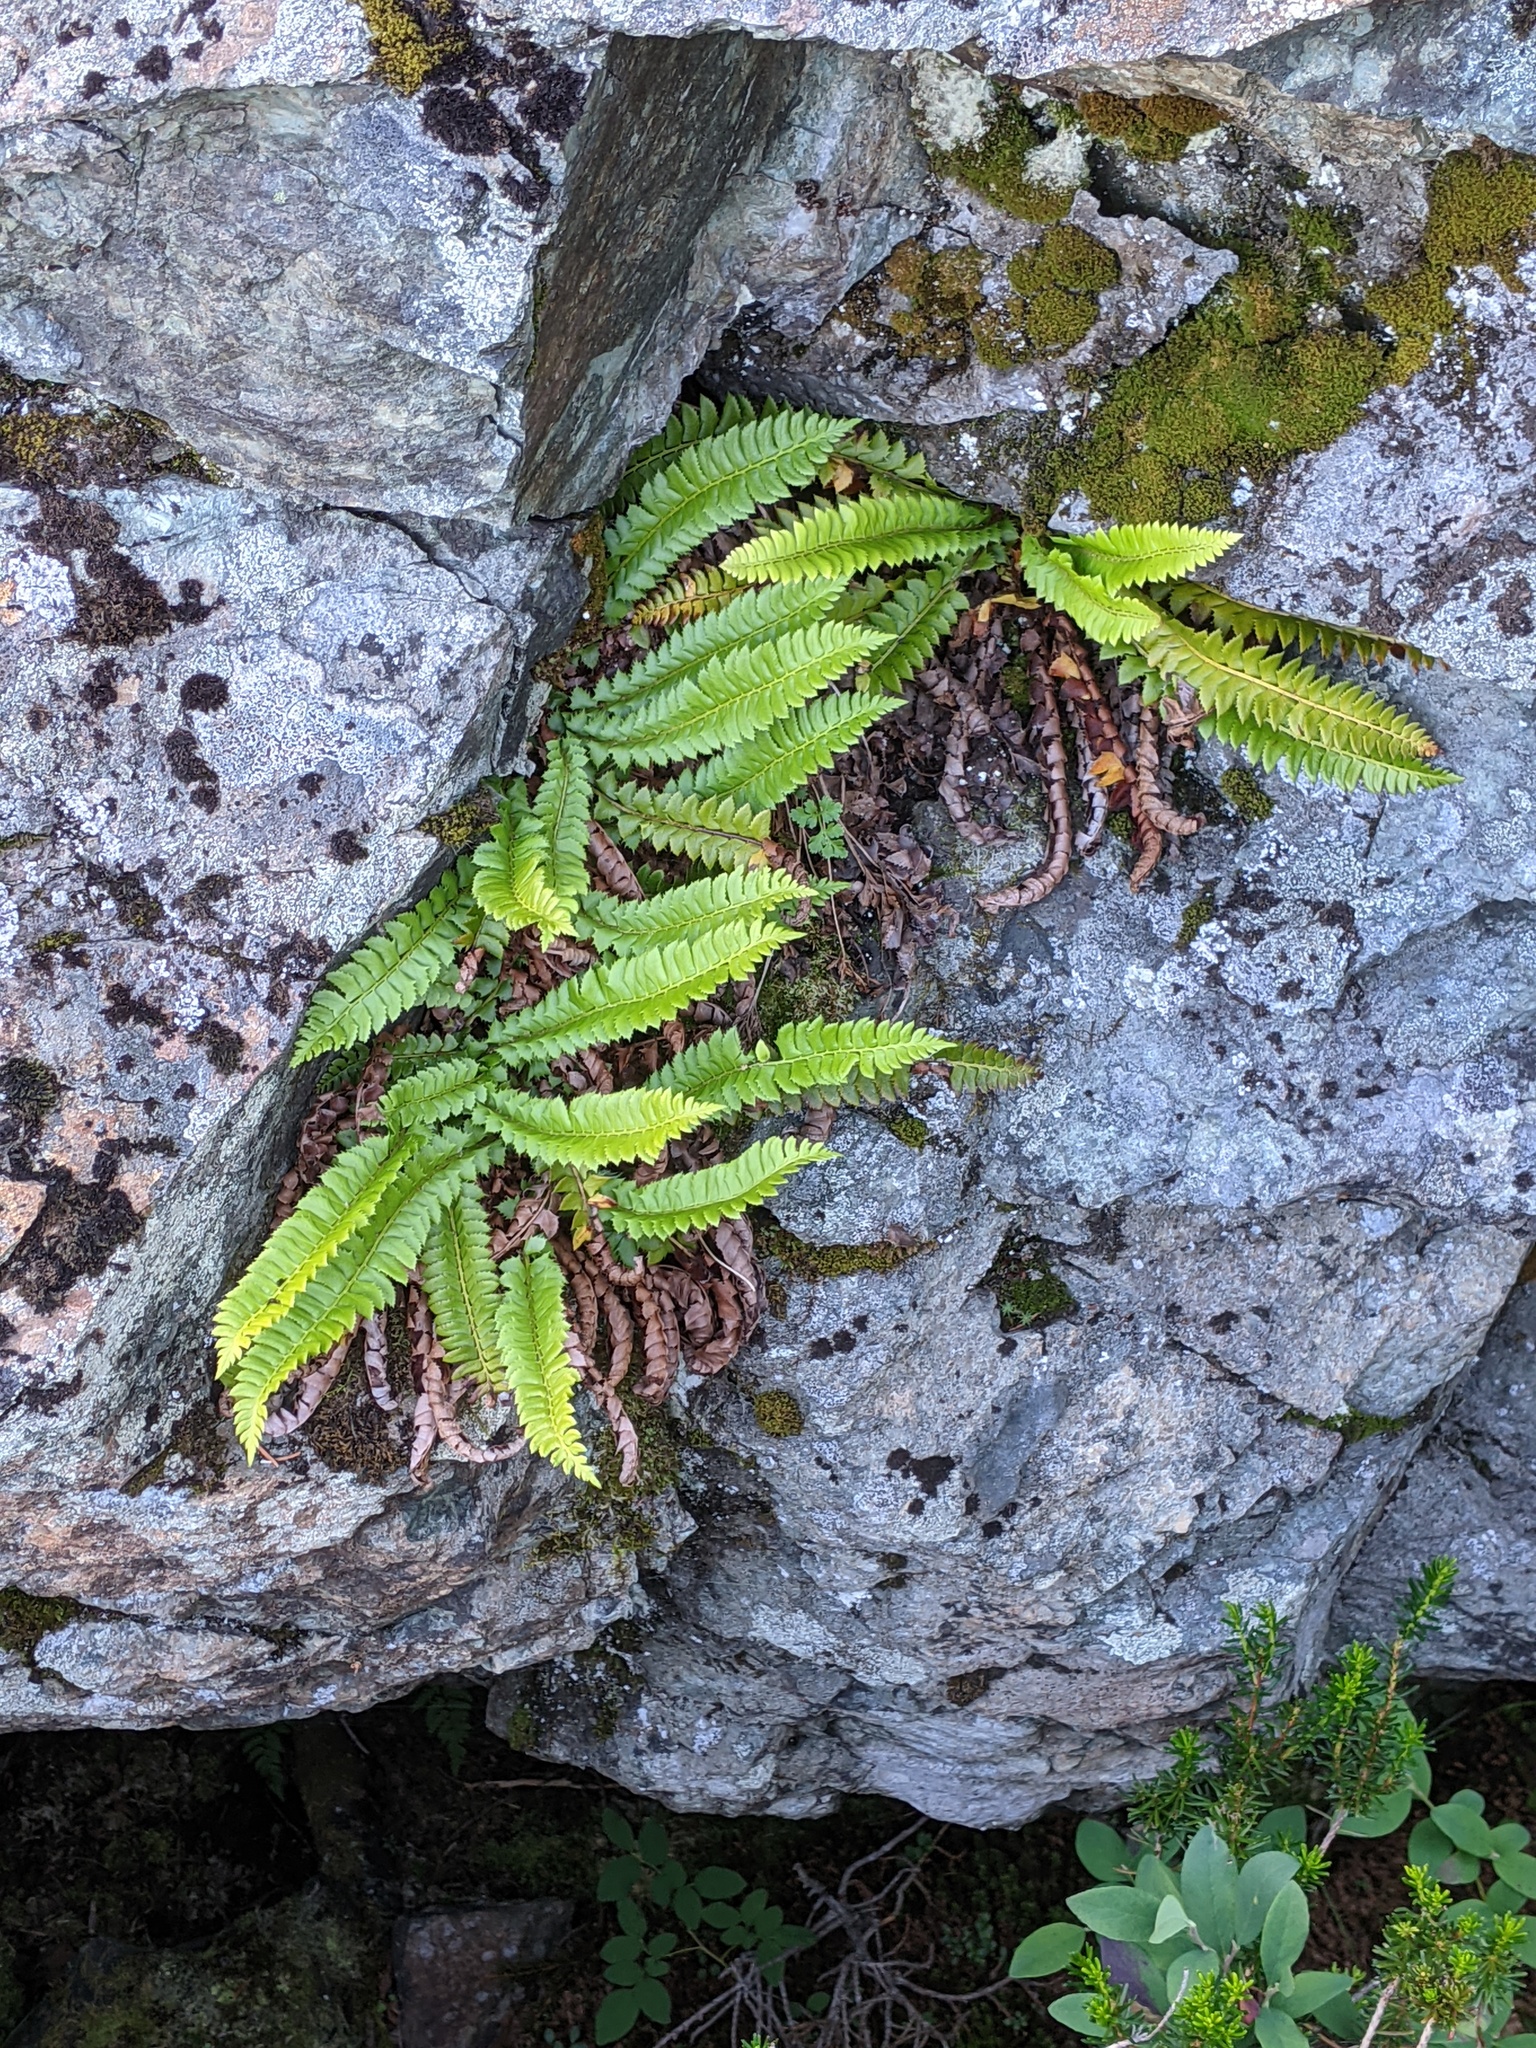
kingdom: Plantae
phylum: Tracheophyta
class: Polypodiopsida
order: Polypodiales
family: Dryopteridaceae
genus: Polystichum
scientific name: Polystichum lonchitis
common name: Holly fern
